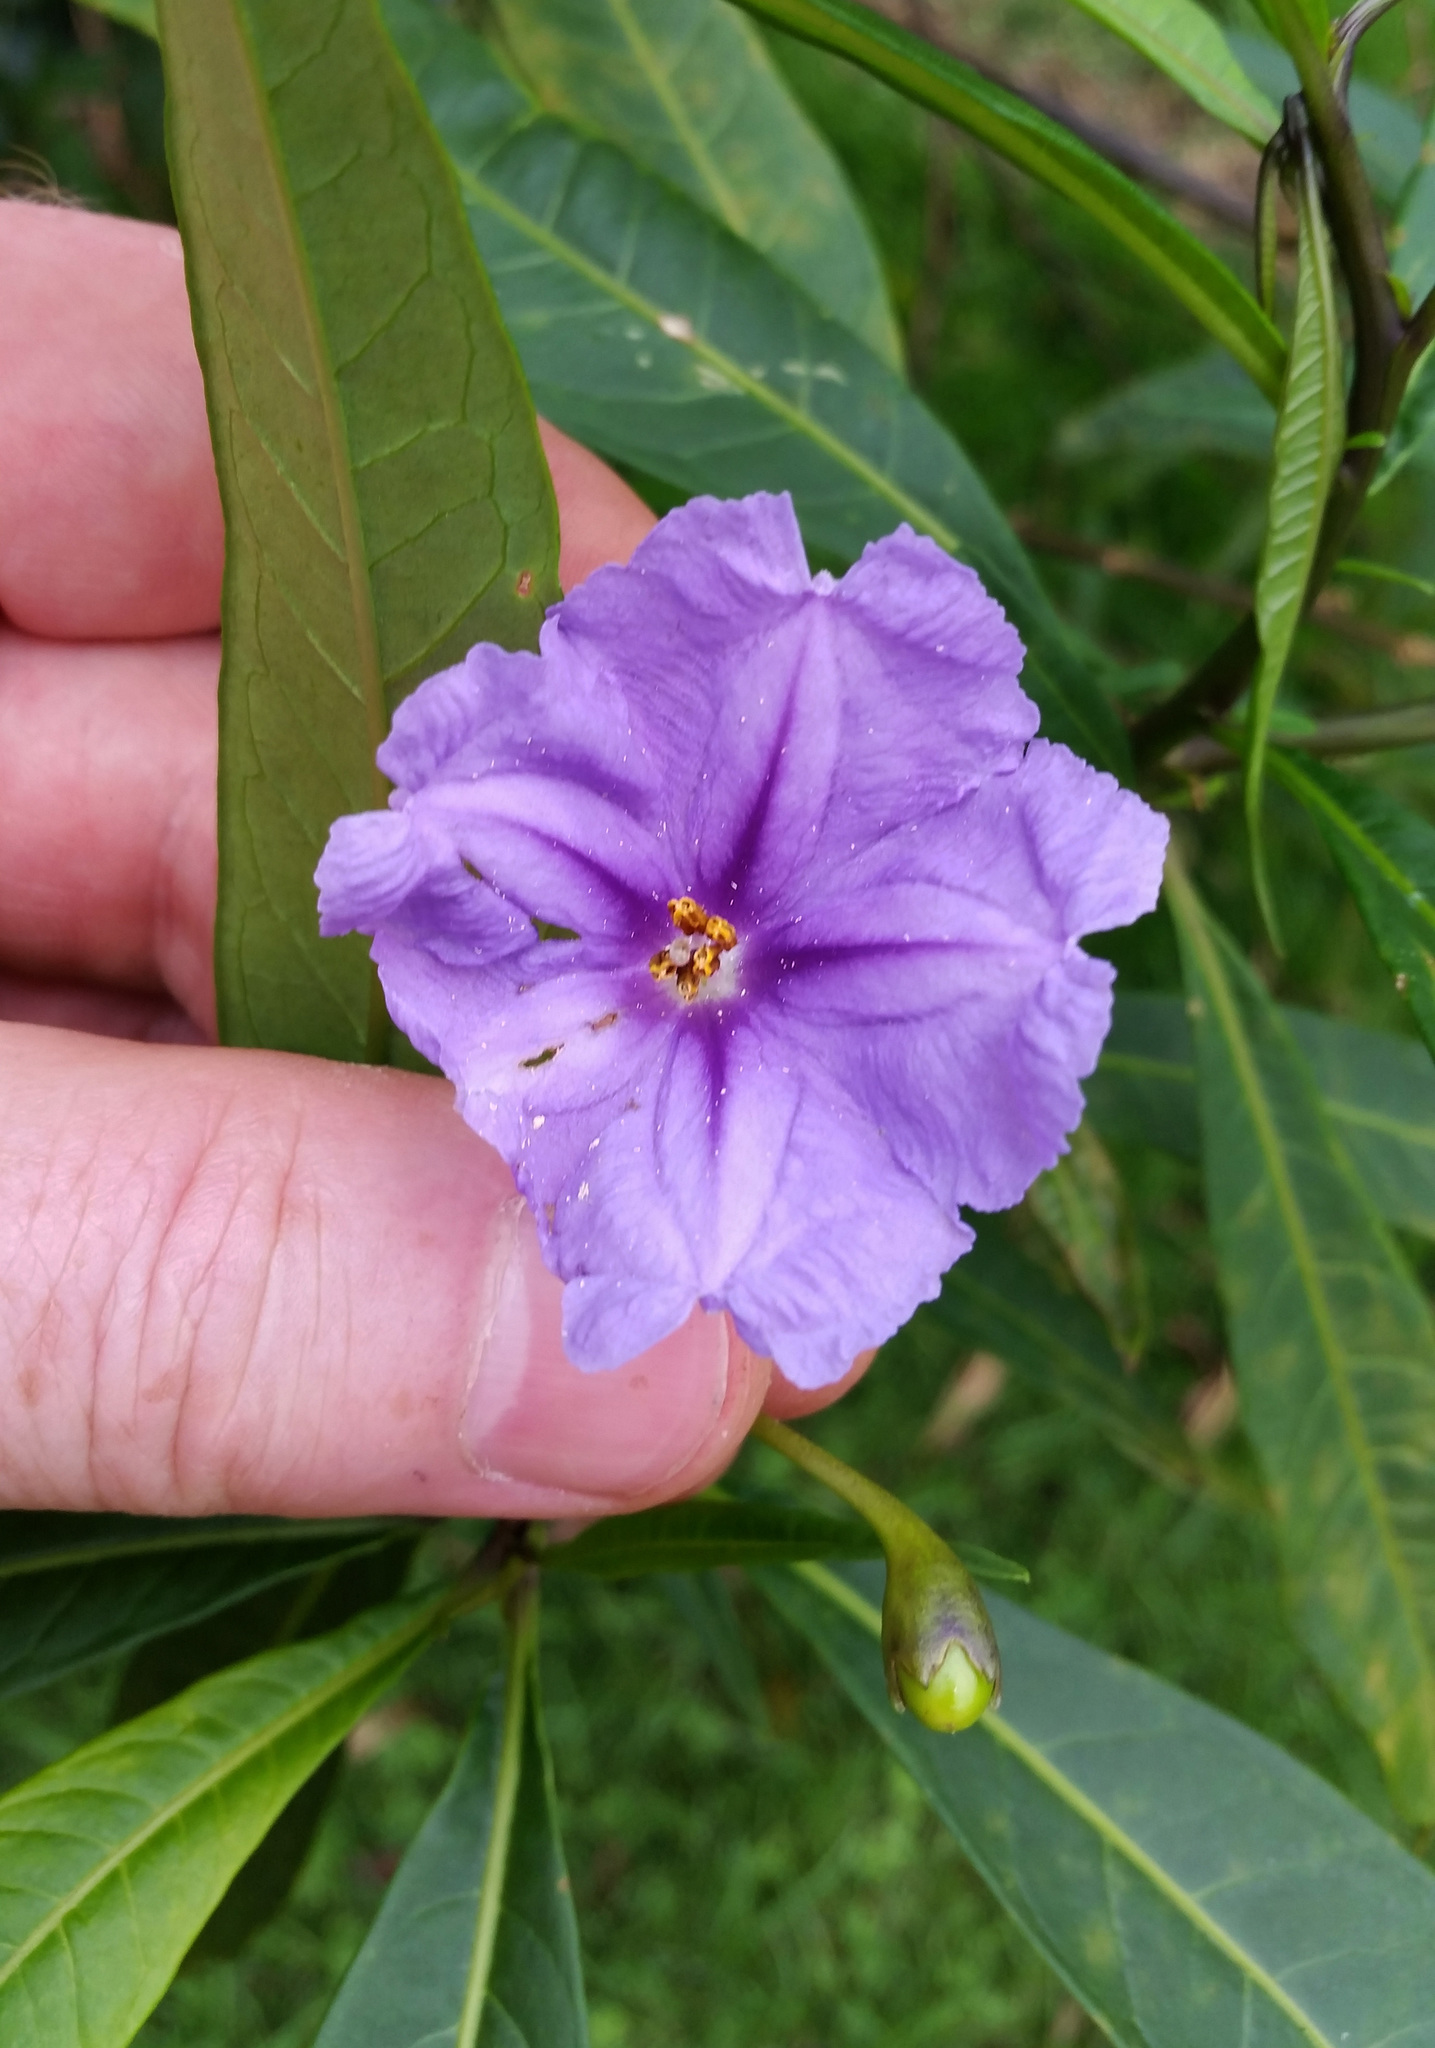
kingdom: Plantae
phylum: Tracheophyta
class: Magnoliopsida
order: Solanales
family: Solanaceae
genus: Solanum
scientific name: Solanum laciniatum
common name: Kangaroo-apple
